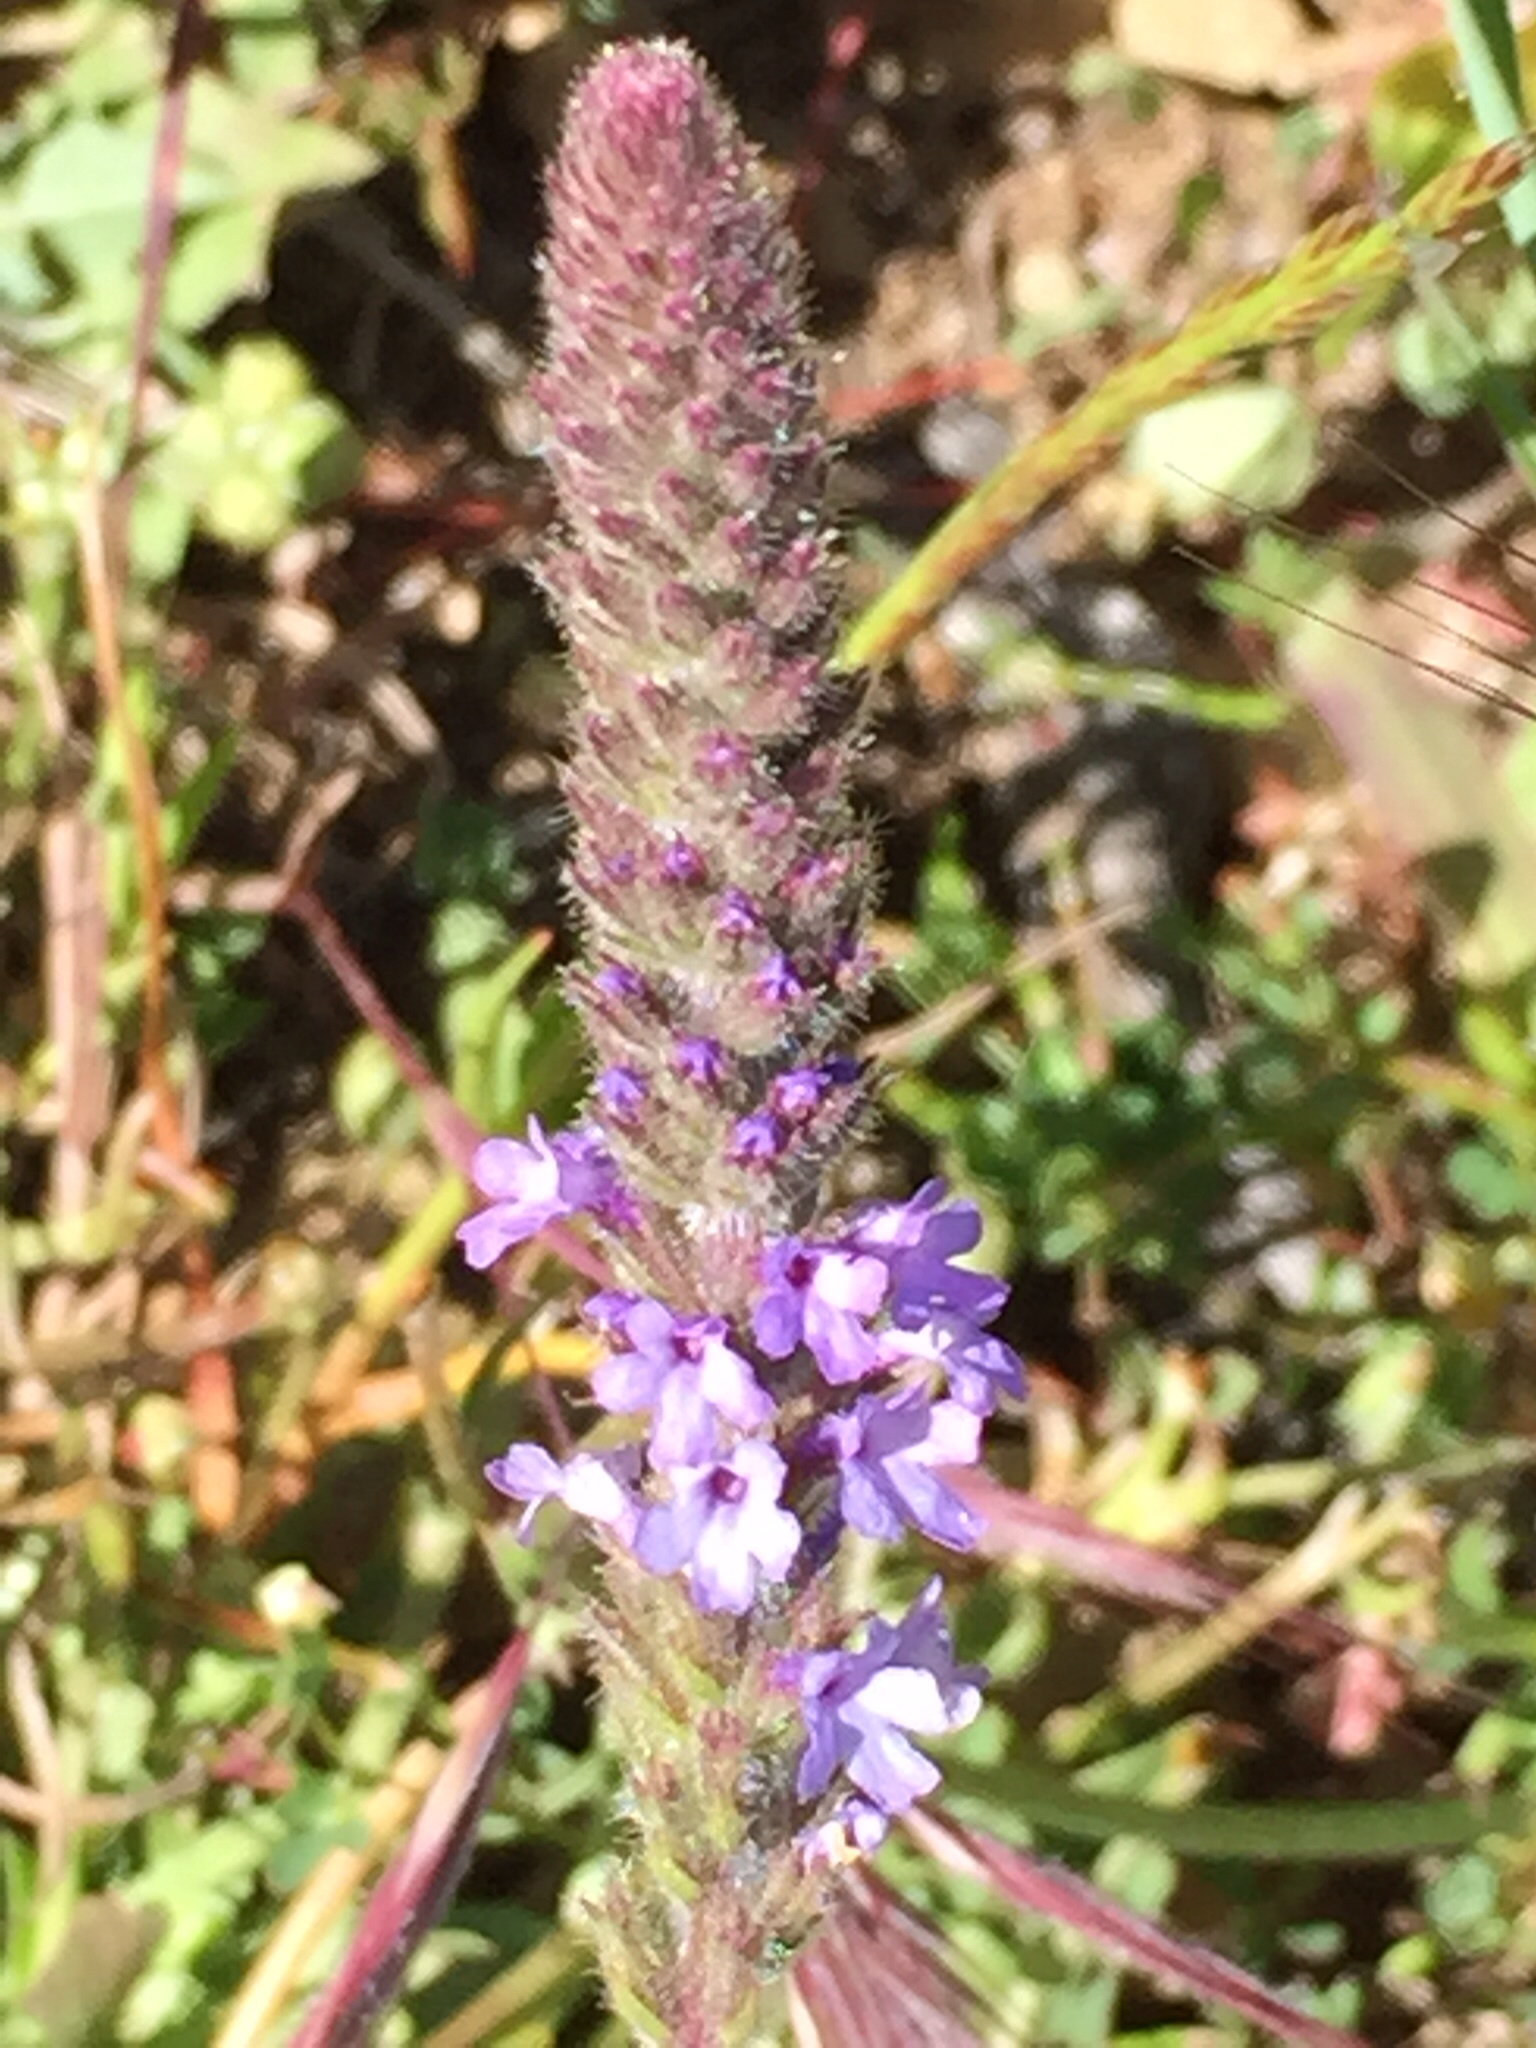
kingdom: Plantae
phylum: Tracheophyta
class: Magnoliopsida
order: Lamiales
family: Verbenaceae
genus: Verbena
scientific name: Verbena lasiostachys
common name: Vervain
